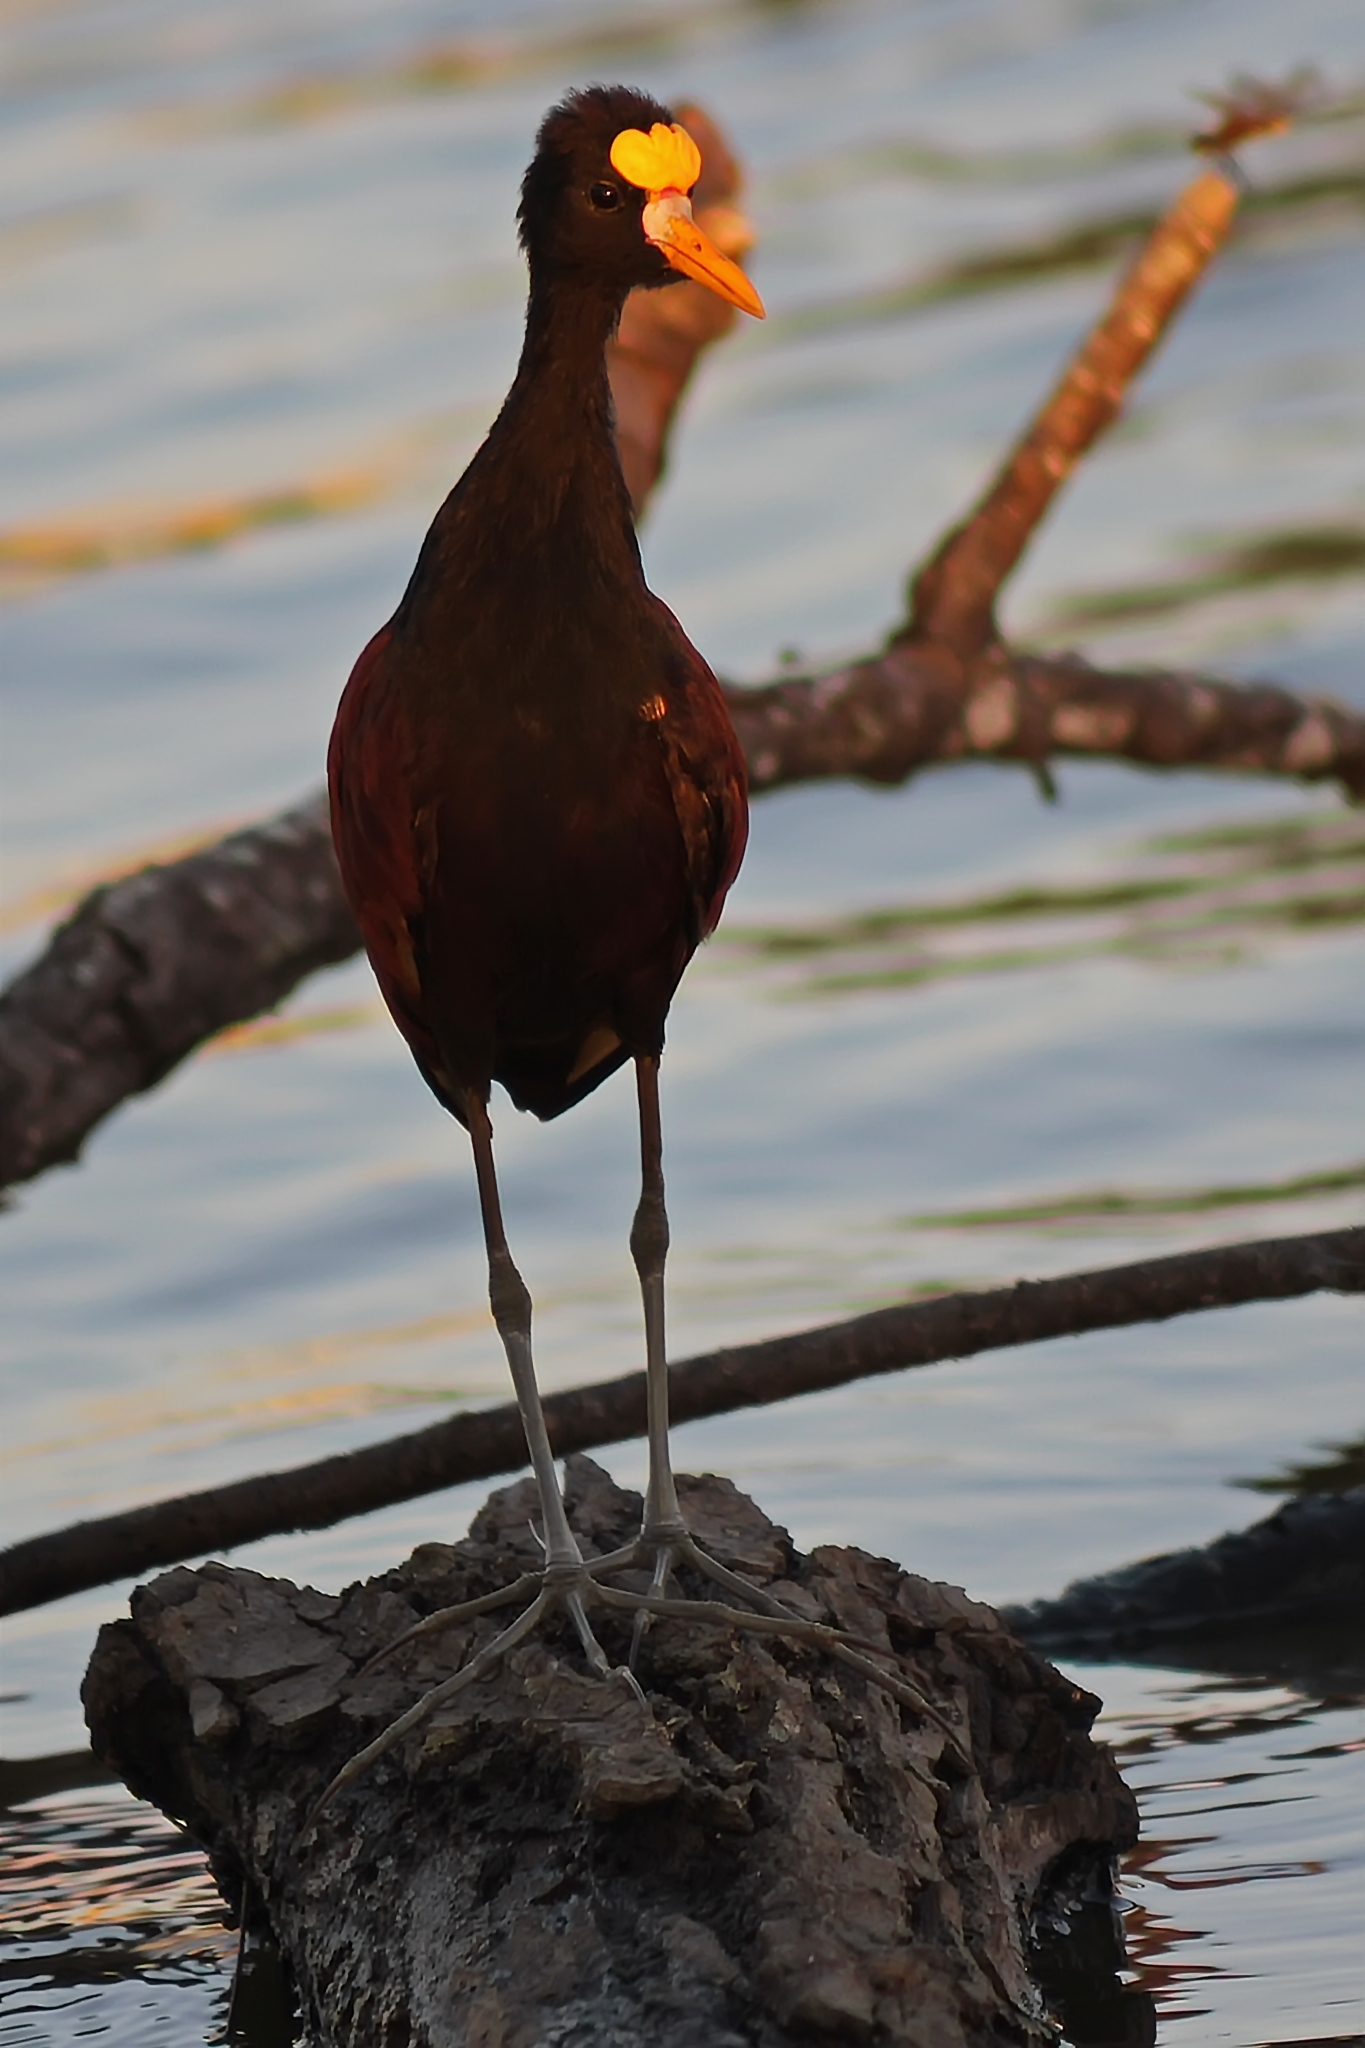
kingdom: Animalia
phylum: Chordata
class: Aves
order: Charadriiformes
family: Jacanidae
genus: Jacana
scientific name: Jacana spinosa
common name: Northern jacana
